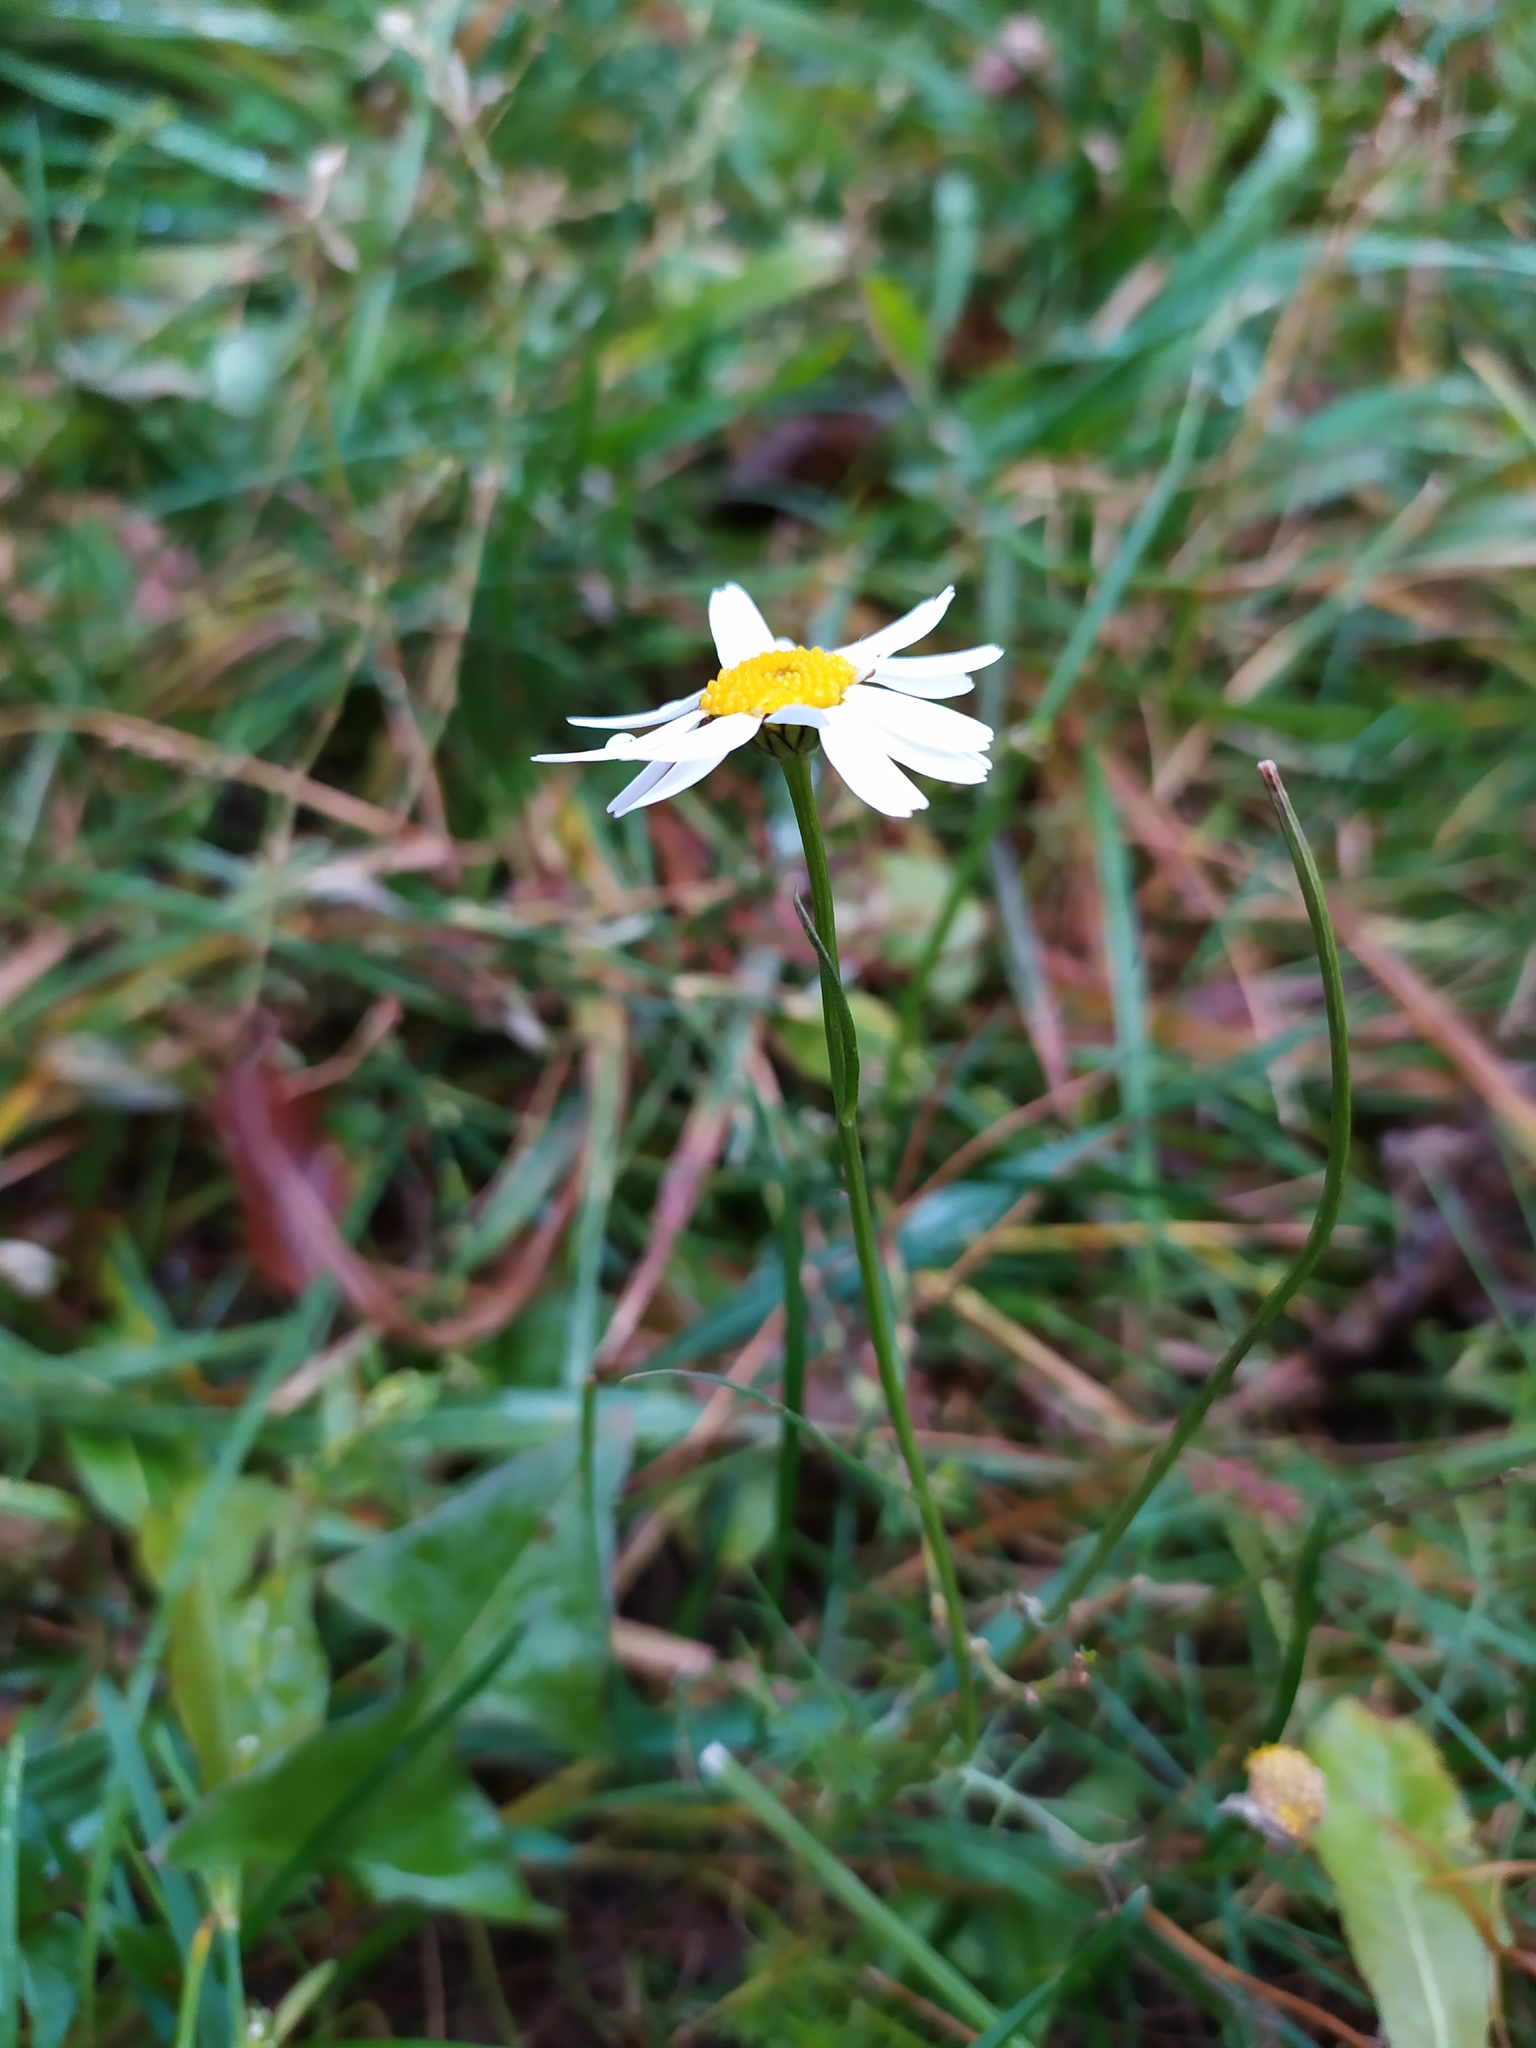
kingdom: Plantae
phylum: Tracheophyta
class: Magnoliopsida
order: Asterales
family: Asteraceae
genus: Tripleurospermum
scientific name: Tripleurospermum inodorum
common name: Scentless mayweed
